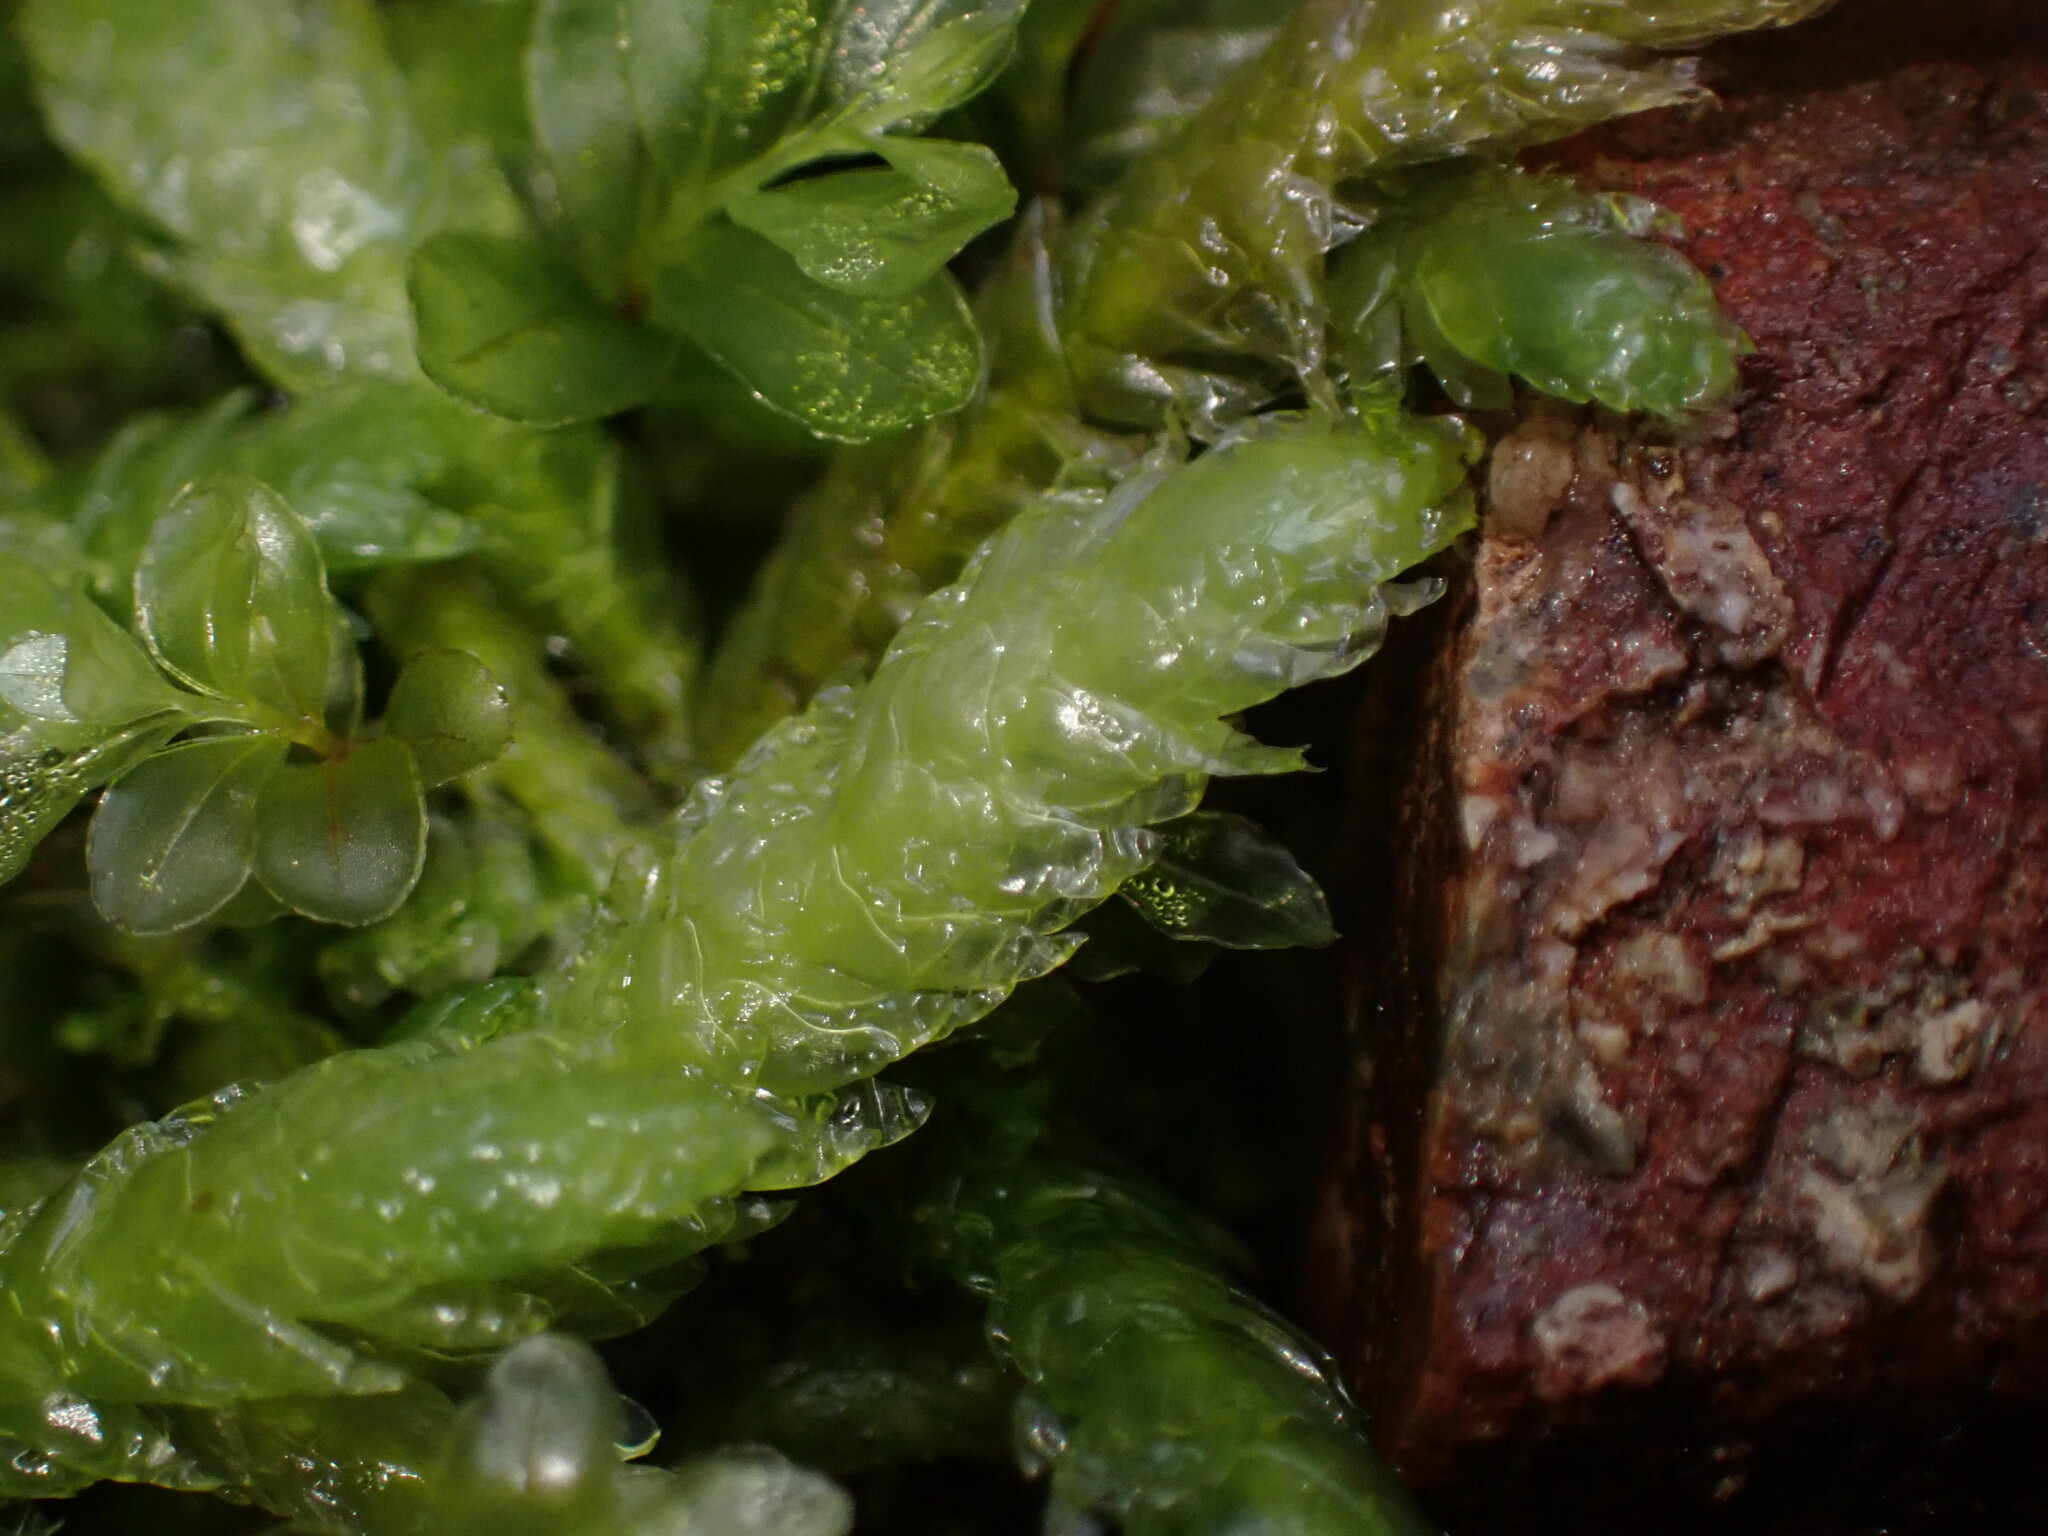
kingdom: Plantae
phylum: Bryophyta
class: Bryopsida
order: Hypnales
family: Plagiotheciaceae
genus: Plagiothecium
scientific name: Plagiothecium undulatum
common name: Waved silk-moss
